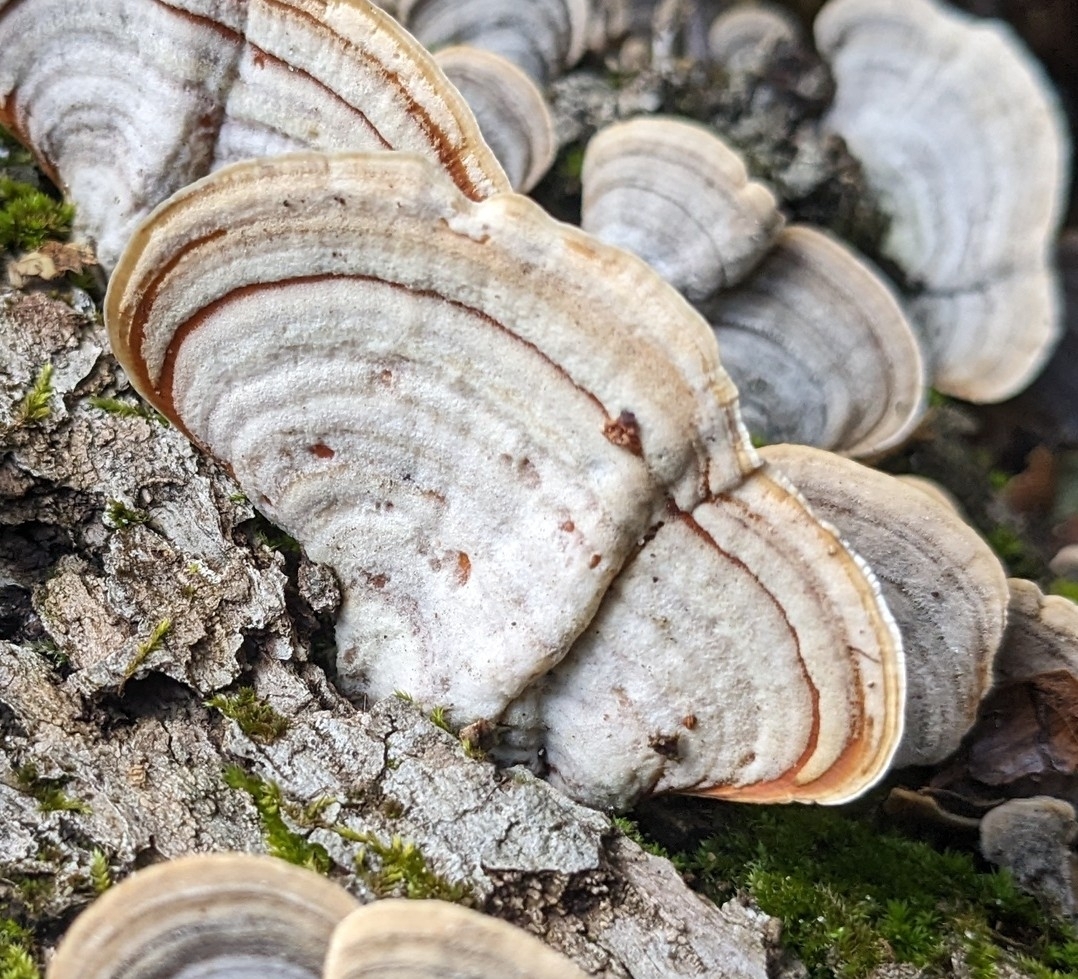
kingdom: Fungi
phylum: Basidiomycota
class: Agaricomycetes
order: Russulales
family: Stereaceae
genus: Stereum
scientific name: Stereum lobatum
